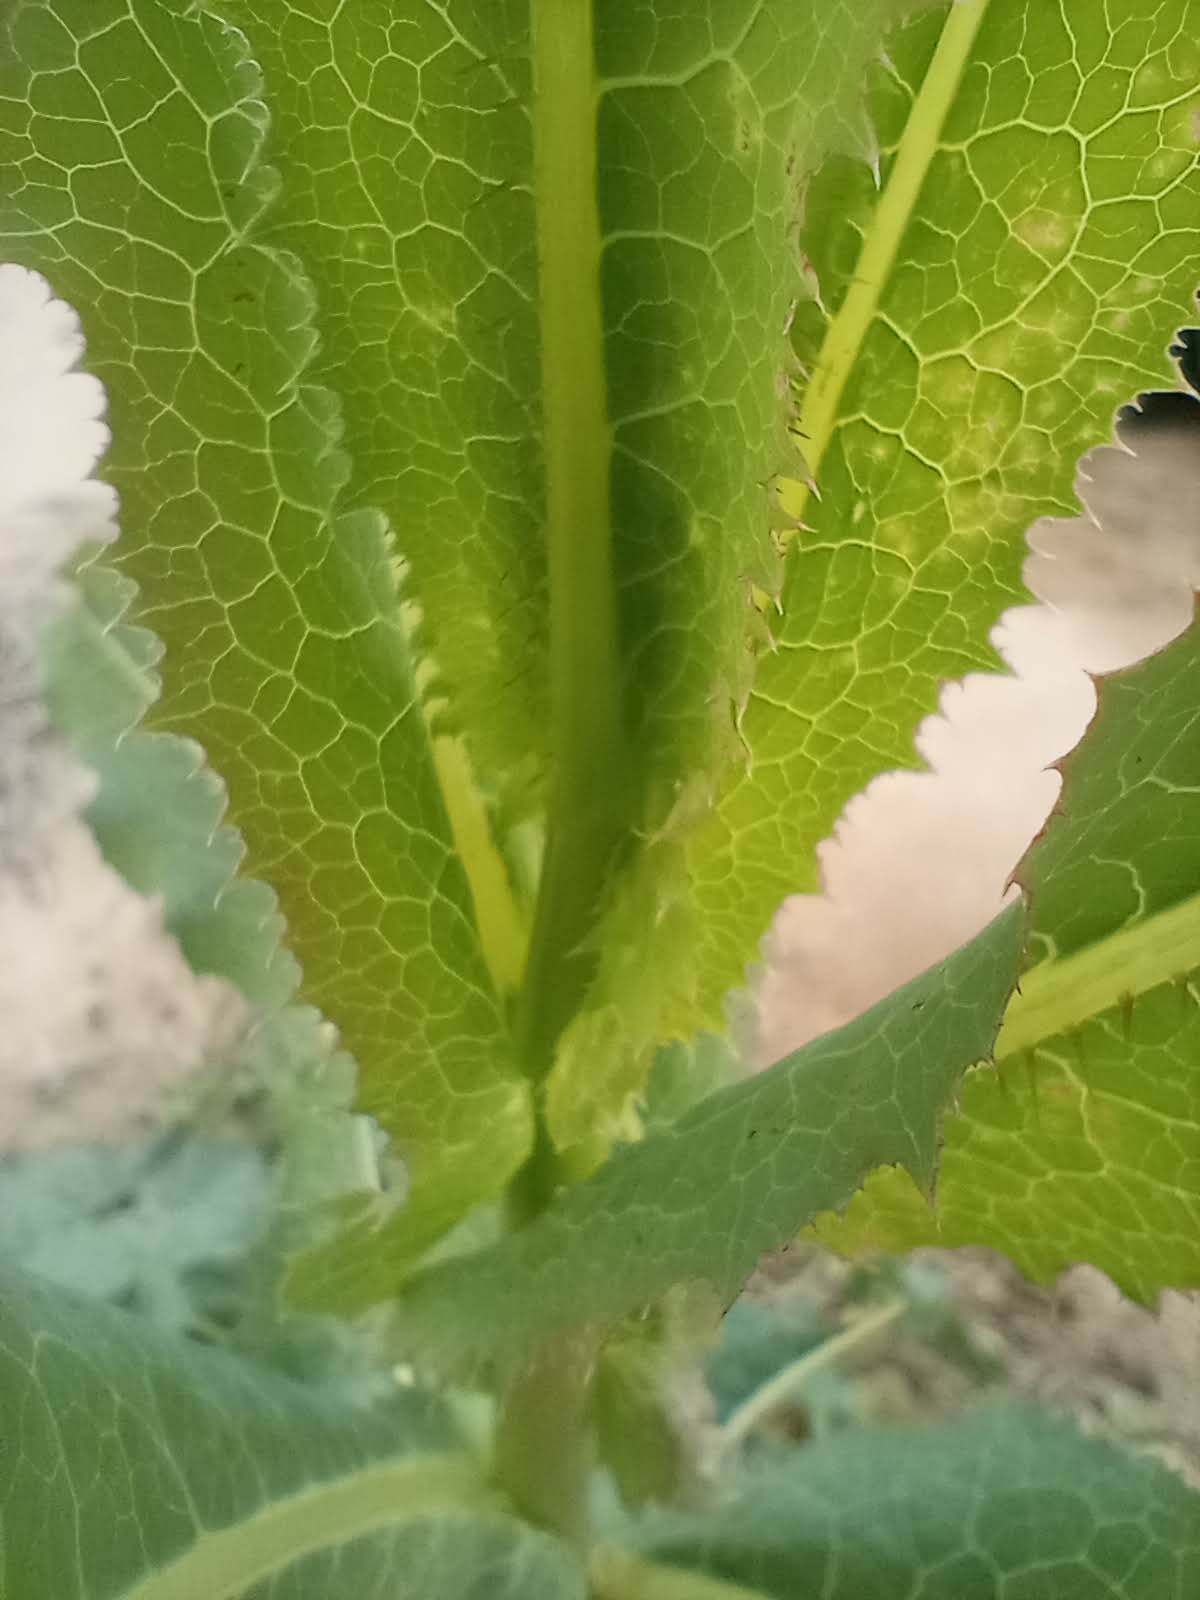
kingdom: Plantae
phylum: Tracheophyta
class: Magnoliopsida
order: Asterales
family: Asteraceae
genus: Lactuca
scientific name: Lactuca serriola
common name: Prickly lettuce
